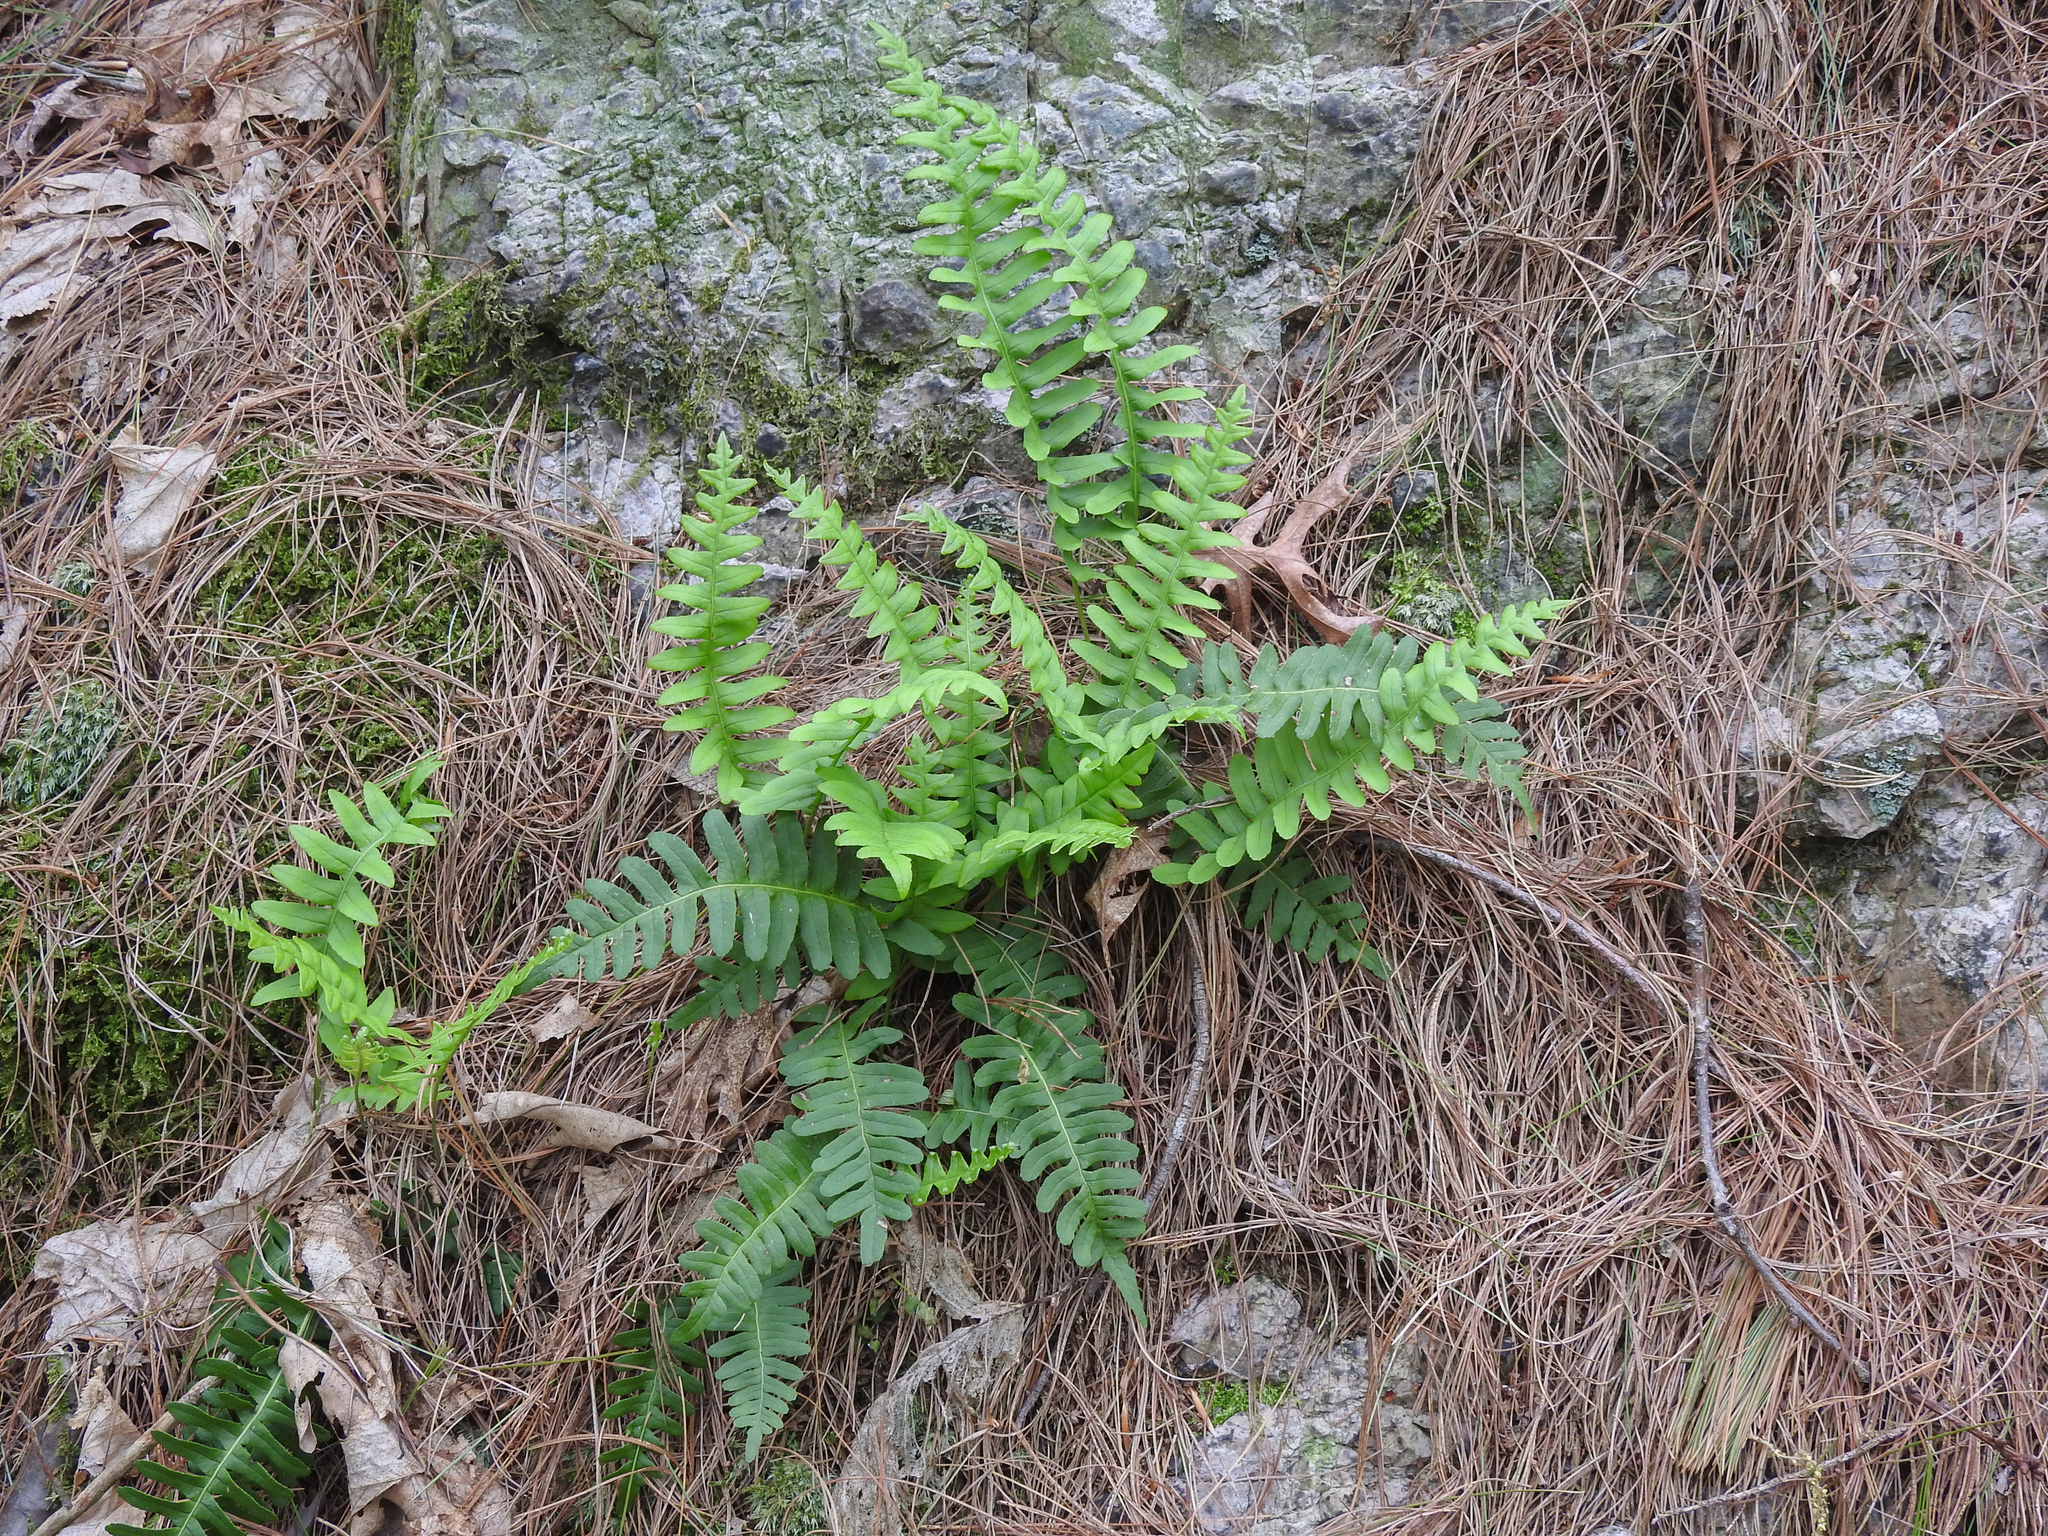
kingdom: Plantae
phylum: Tracheophyta
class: Polypodiopsida
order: Polypodiales
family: Polypodiaceae
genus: Polypodium
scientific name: Polypodium virginianum
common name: American wall fern
